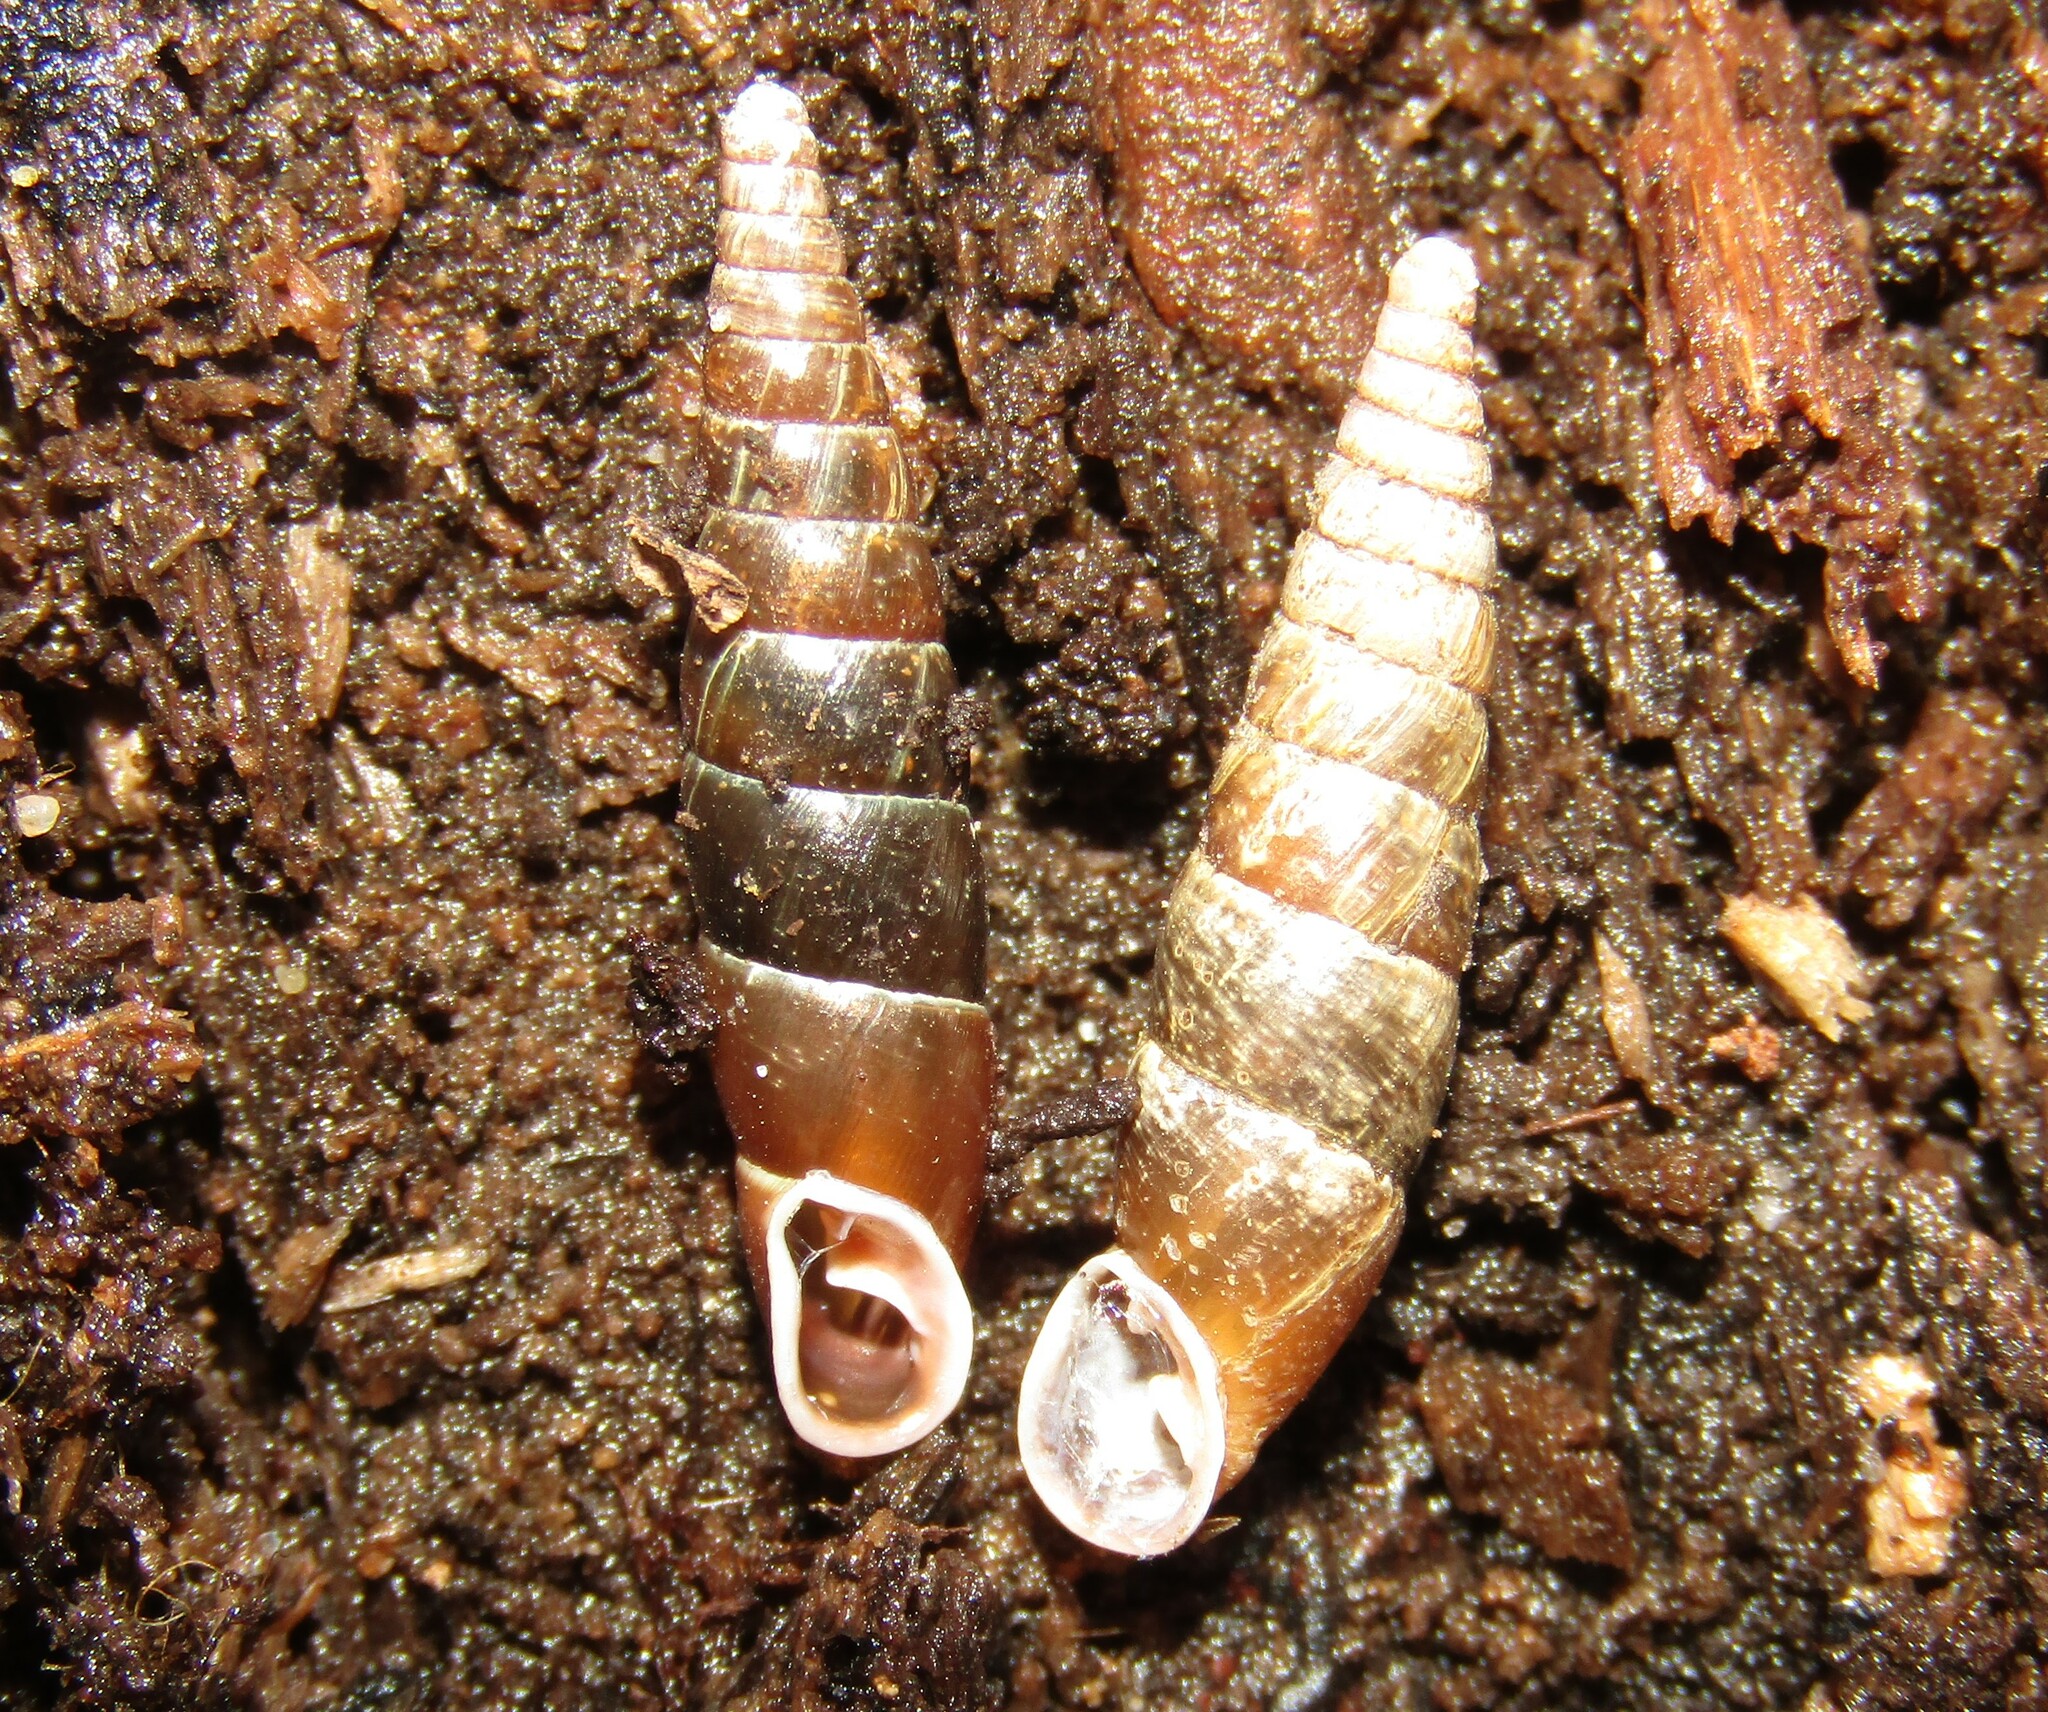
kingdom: Animalia
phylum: Mollusca
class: Gastropoda
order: Stylommatophora
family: Clausiliidae
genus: Cochlodina
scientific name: Cochlodina laminata
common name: Plaited door snail
